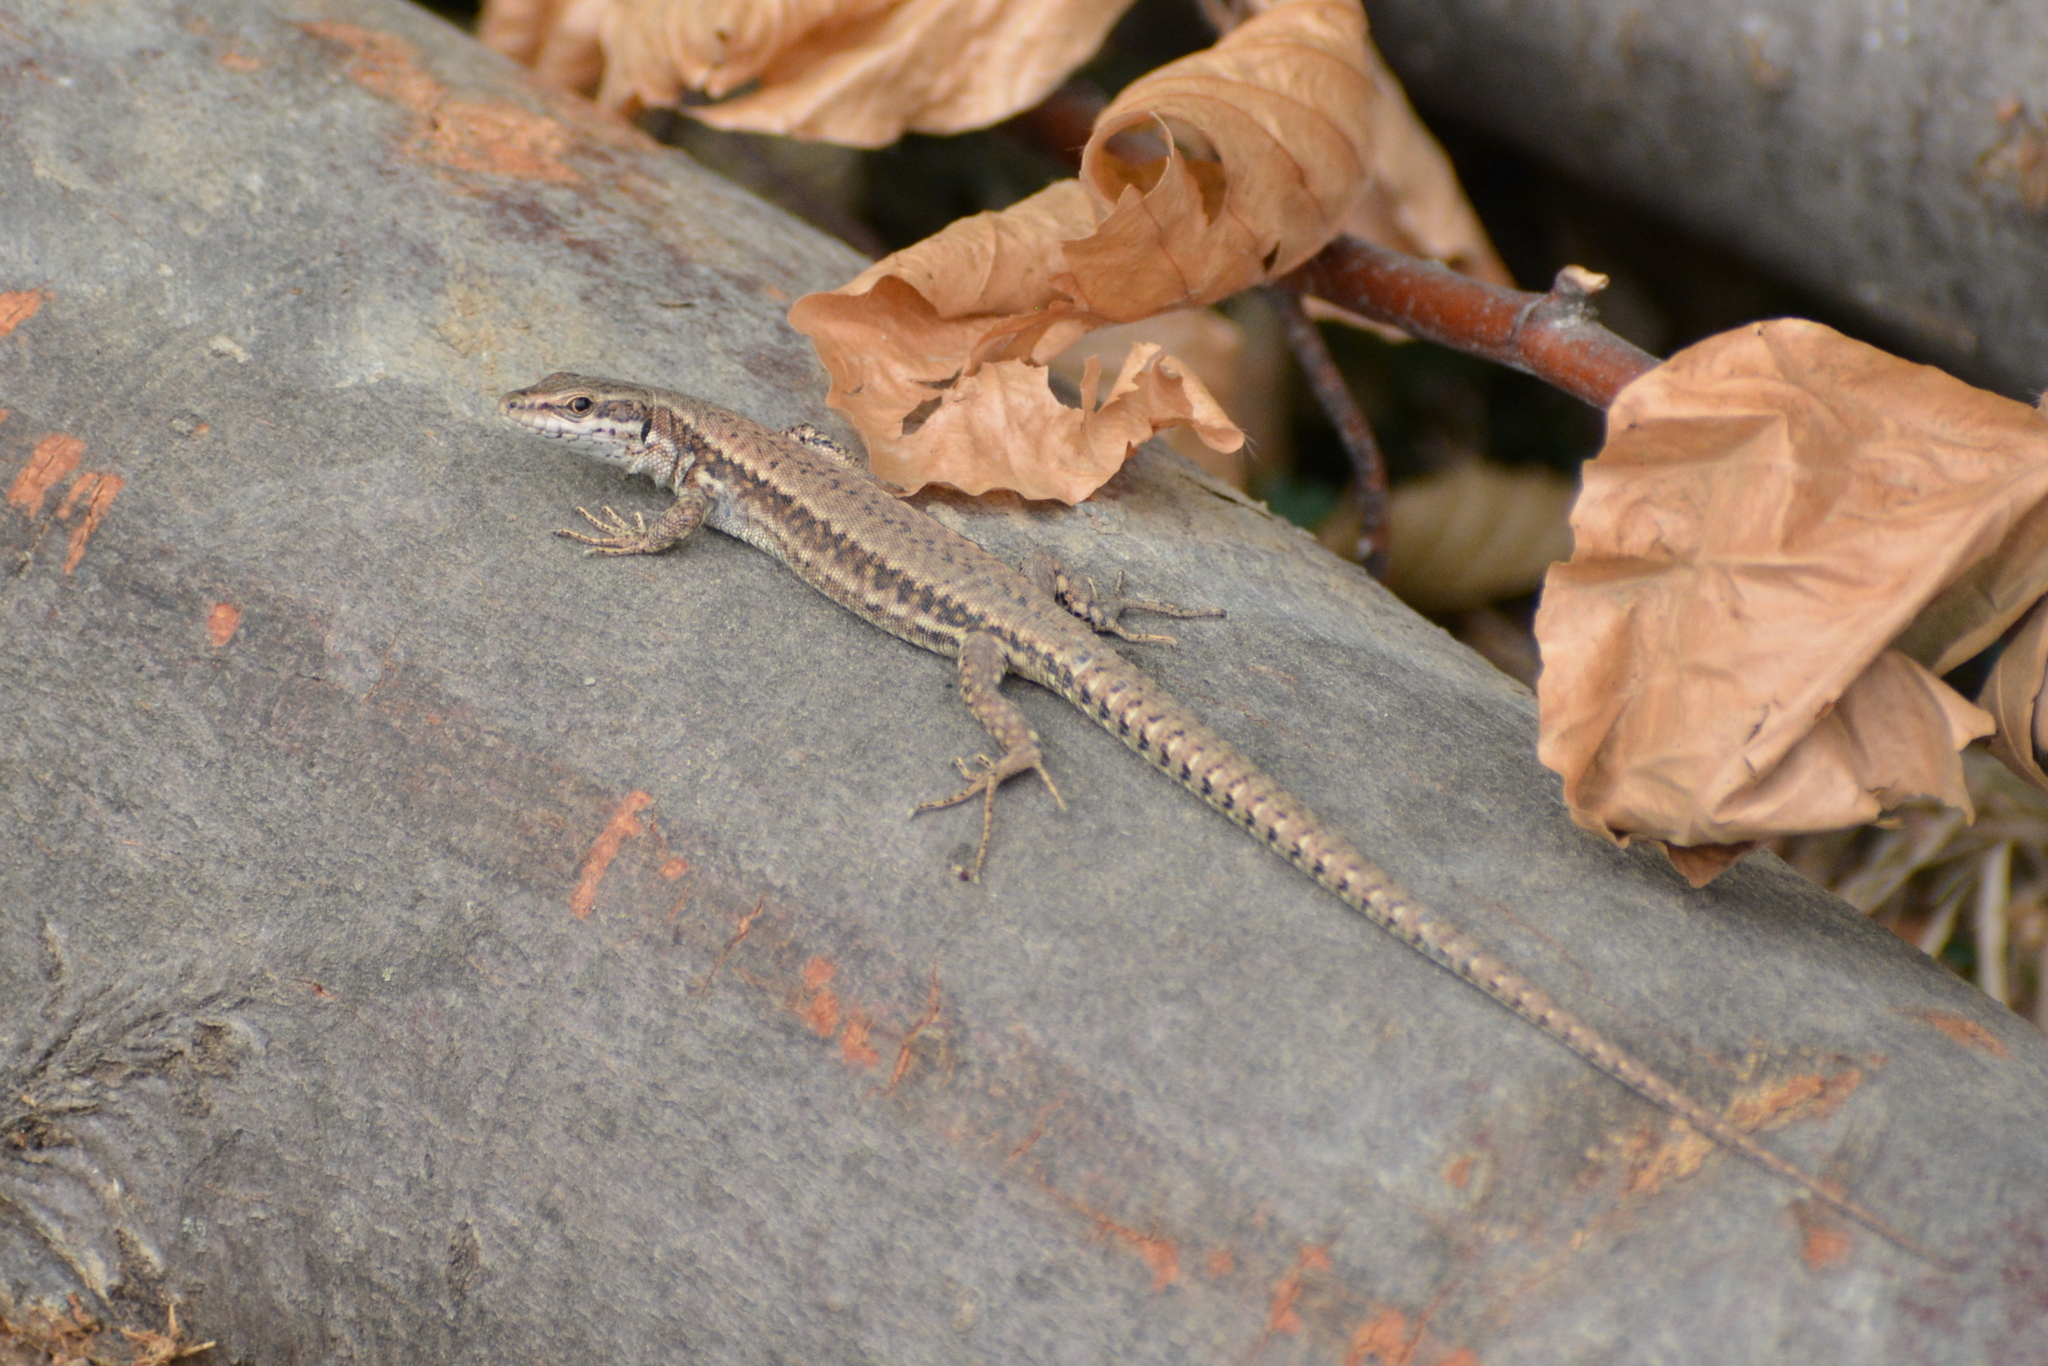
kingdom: Animalia
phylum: Chordata
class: Squamata
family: Lacertidae
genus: Podarcis
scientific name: Podarcis muralis
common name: Common wall lizard
